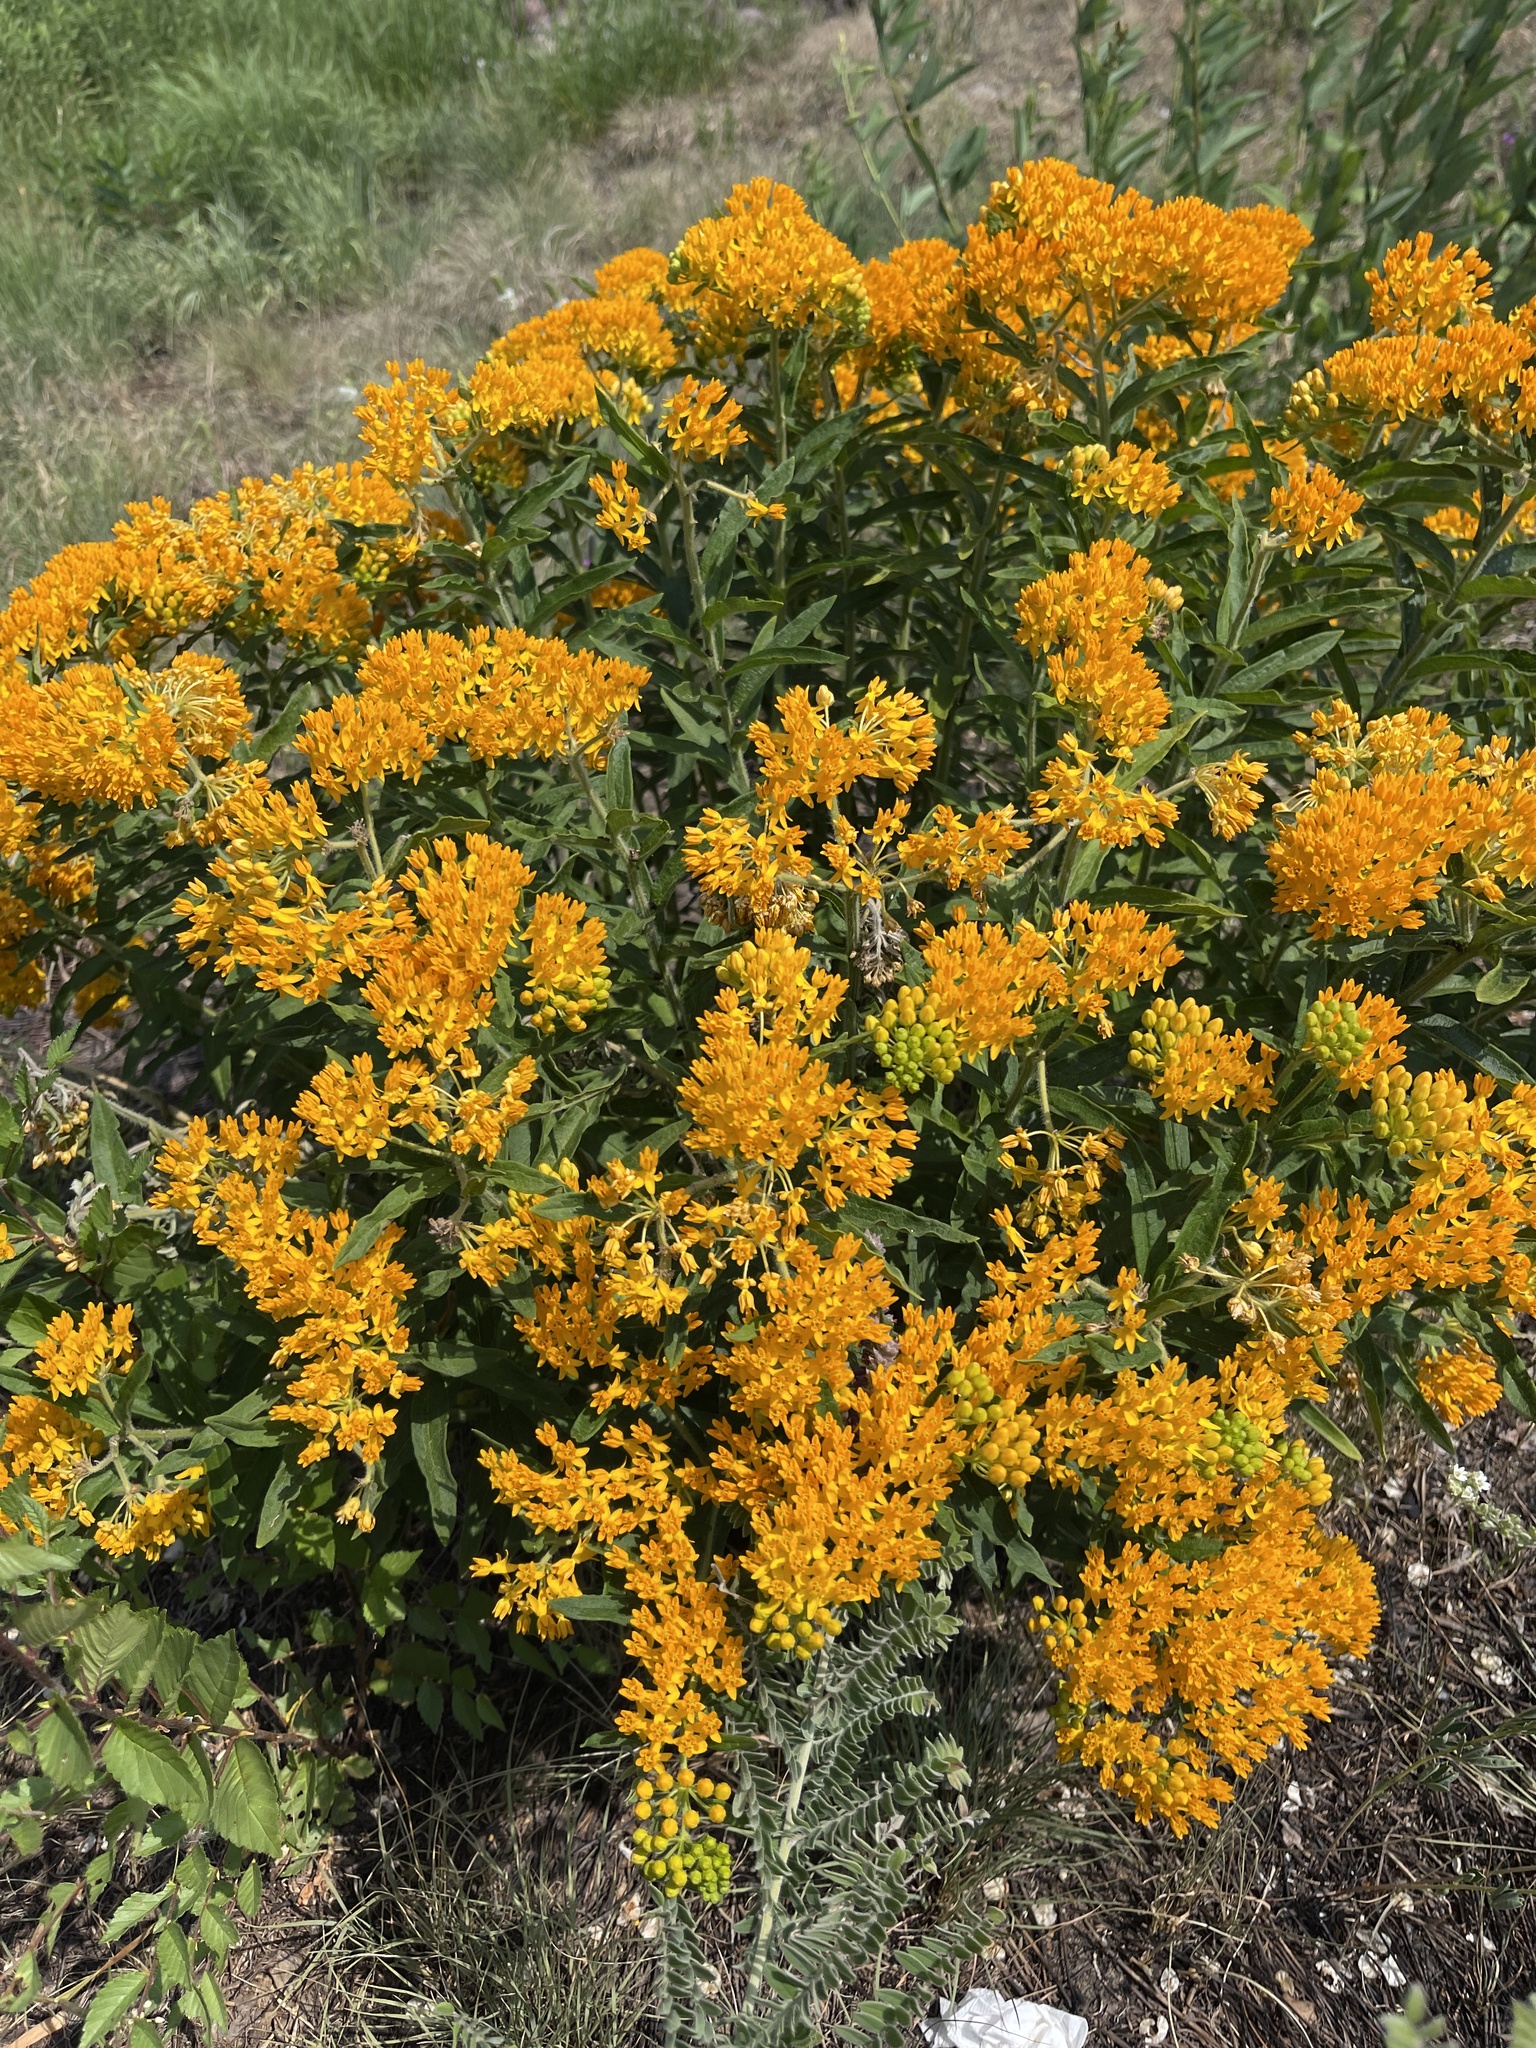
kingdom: Plantae
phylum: Tracheophyta
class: Magnoliopsida
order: Gentianales
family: Apocynaceae
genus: Asclepias
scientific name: Asclepias tuberosa
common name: Butterfly milkweed
